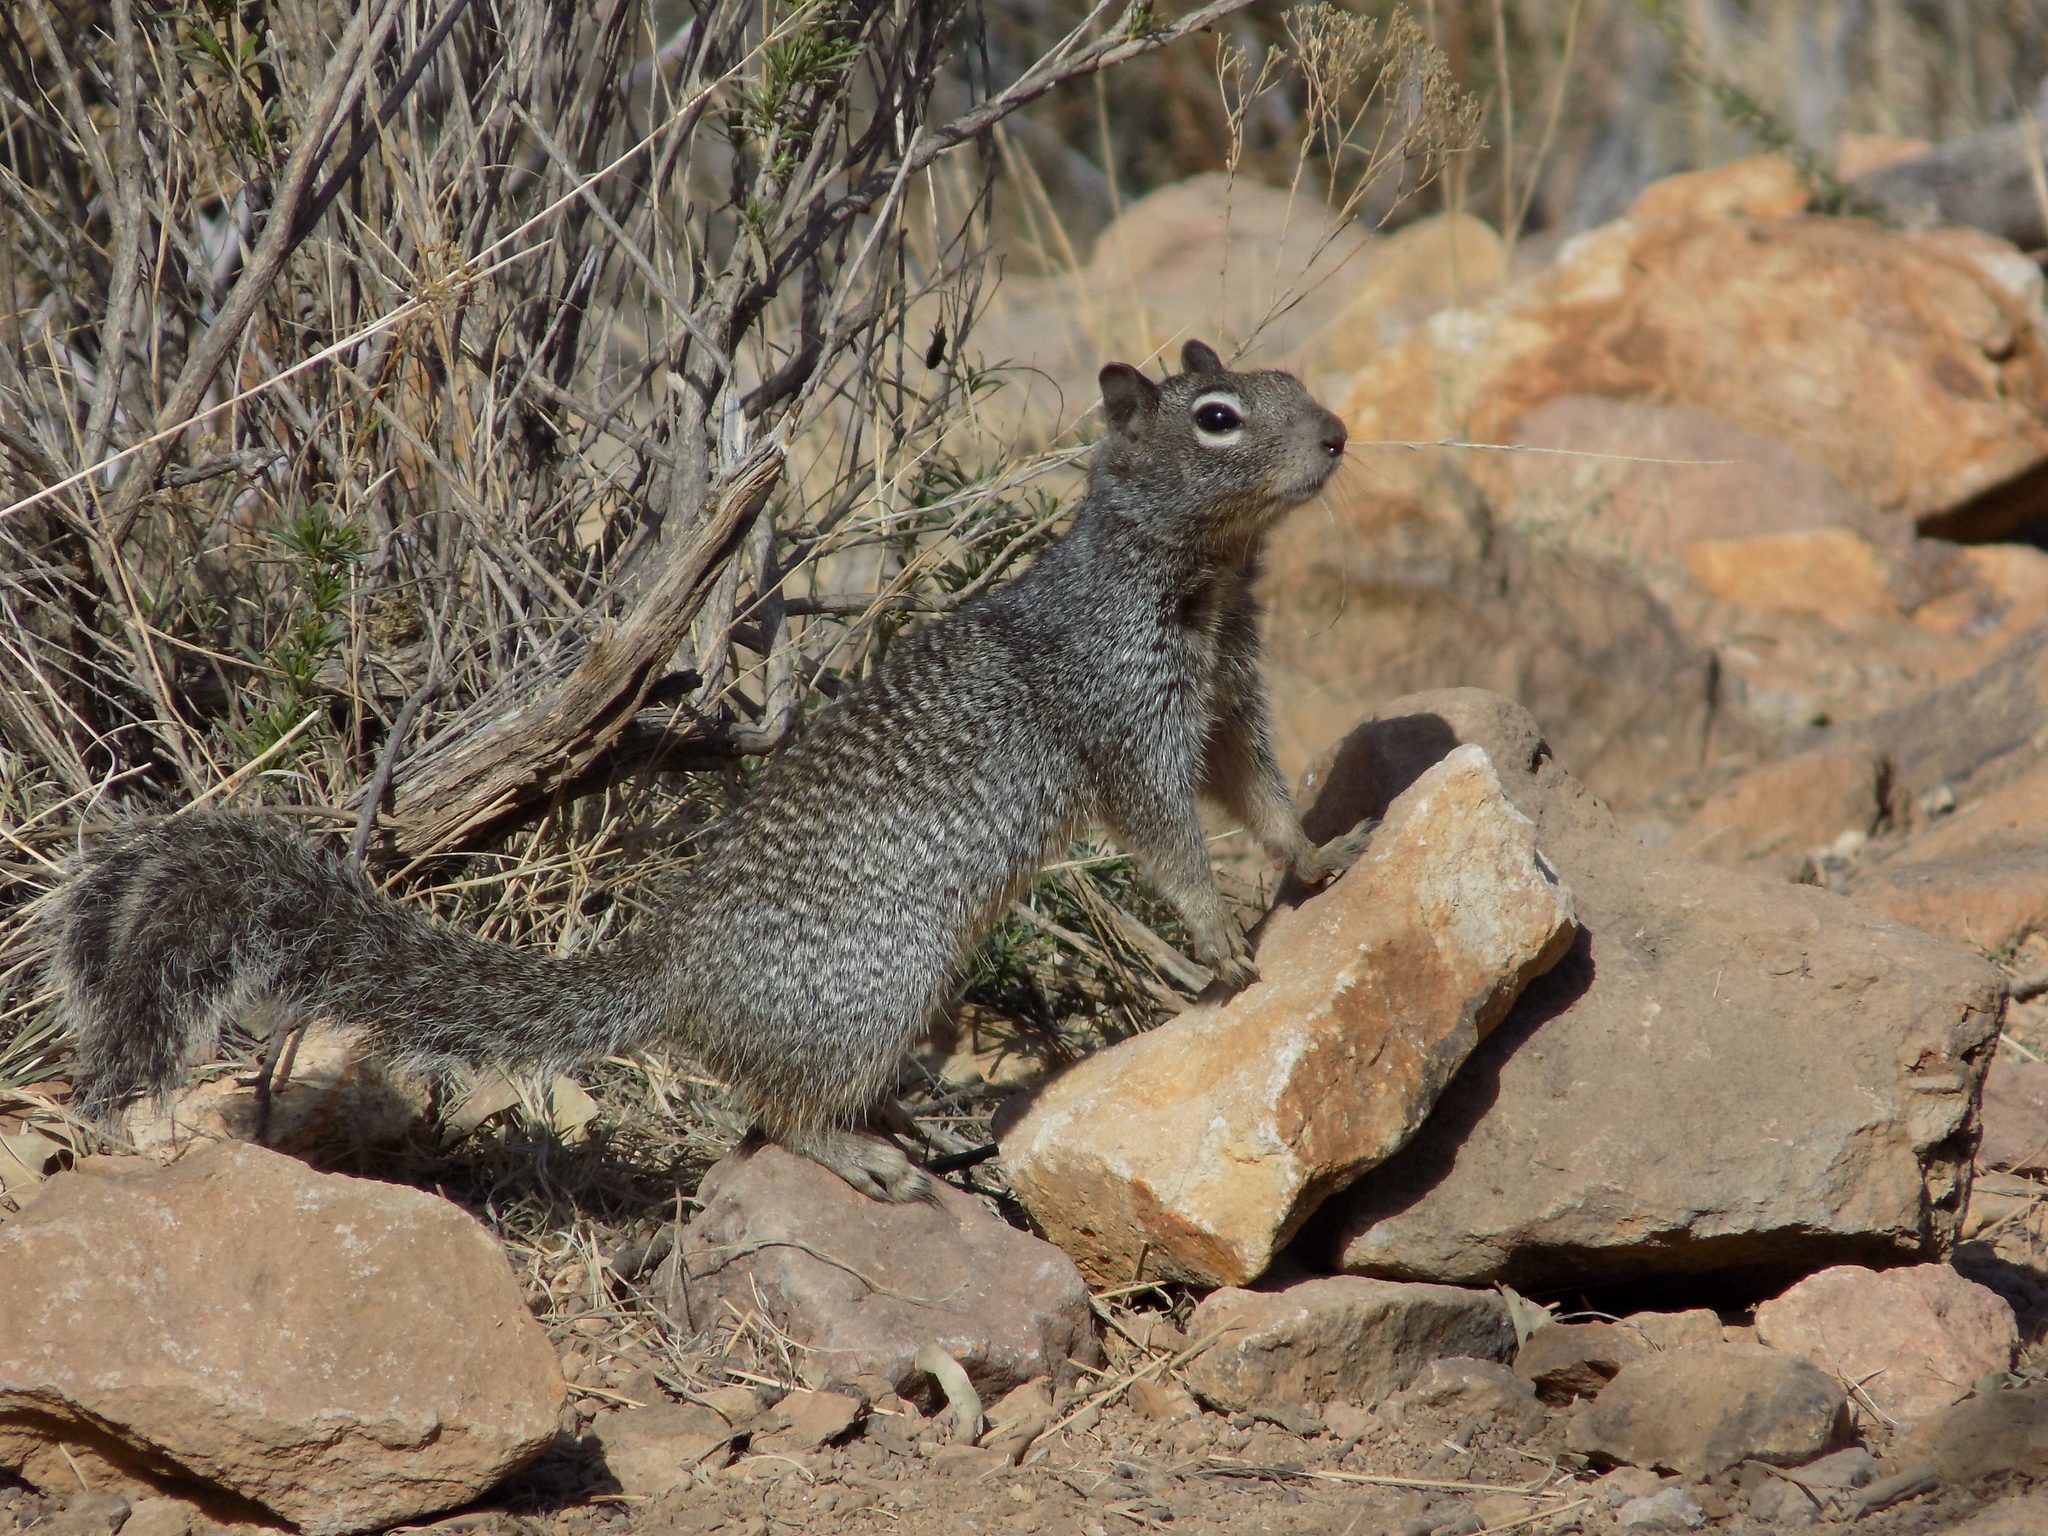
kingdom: Animalia
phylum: Chordata
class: Mammalia
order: Rodentia
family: Sciuridae
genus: Otospermophilus
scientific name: Otospermophilus variegatus
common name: Rock squirrel
